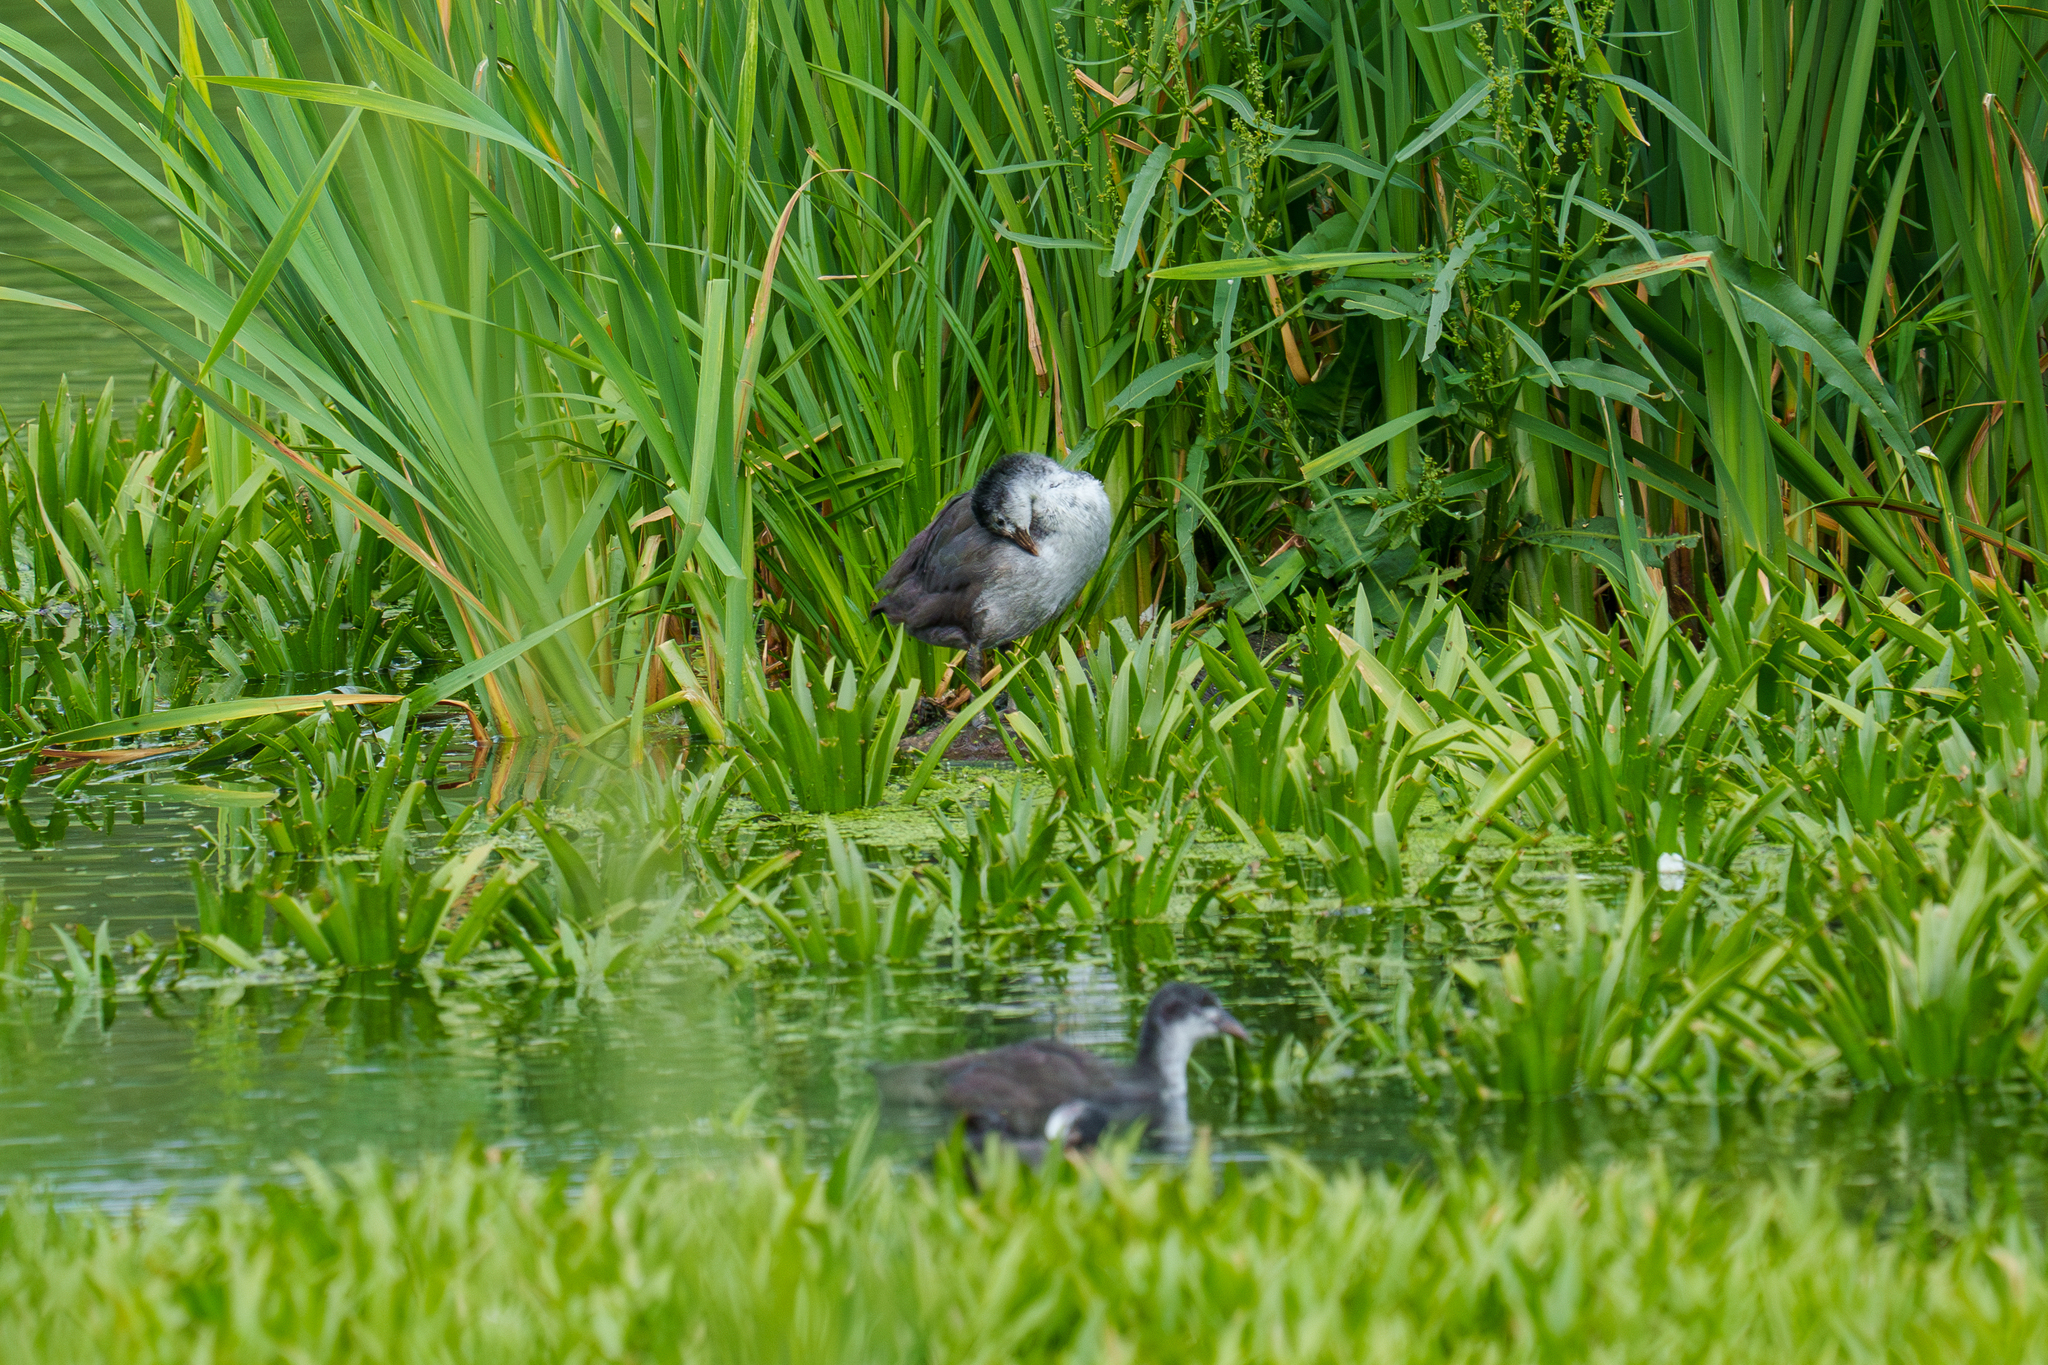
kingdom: Animalia
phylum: Chordata
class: Aves
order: Gruiformes
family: Rallidae
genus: Fulica
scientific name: Fulica atra
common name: Eurasian coot
